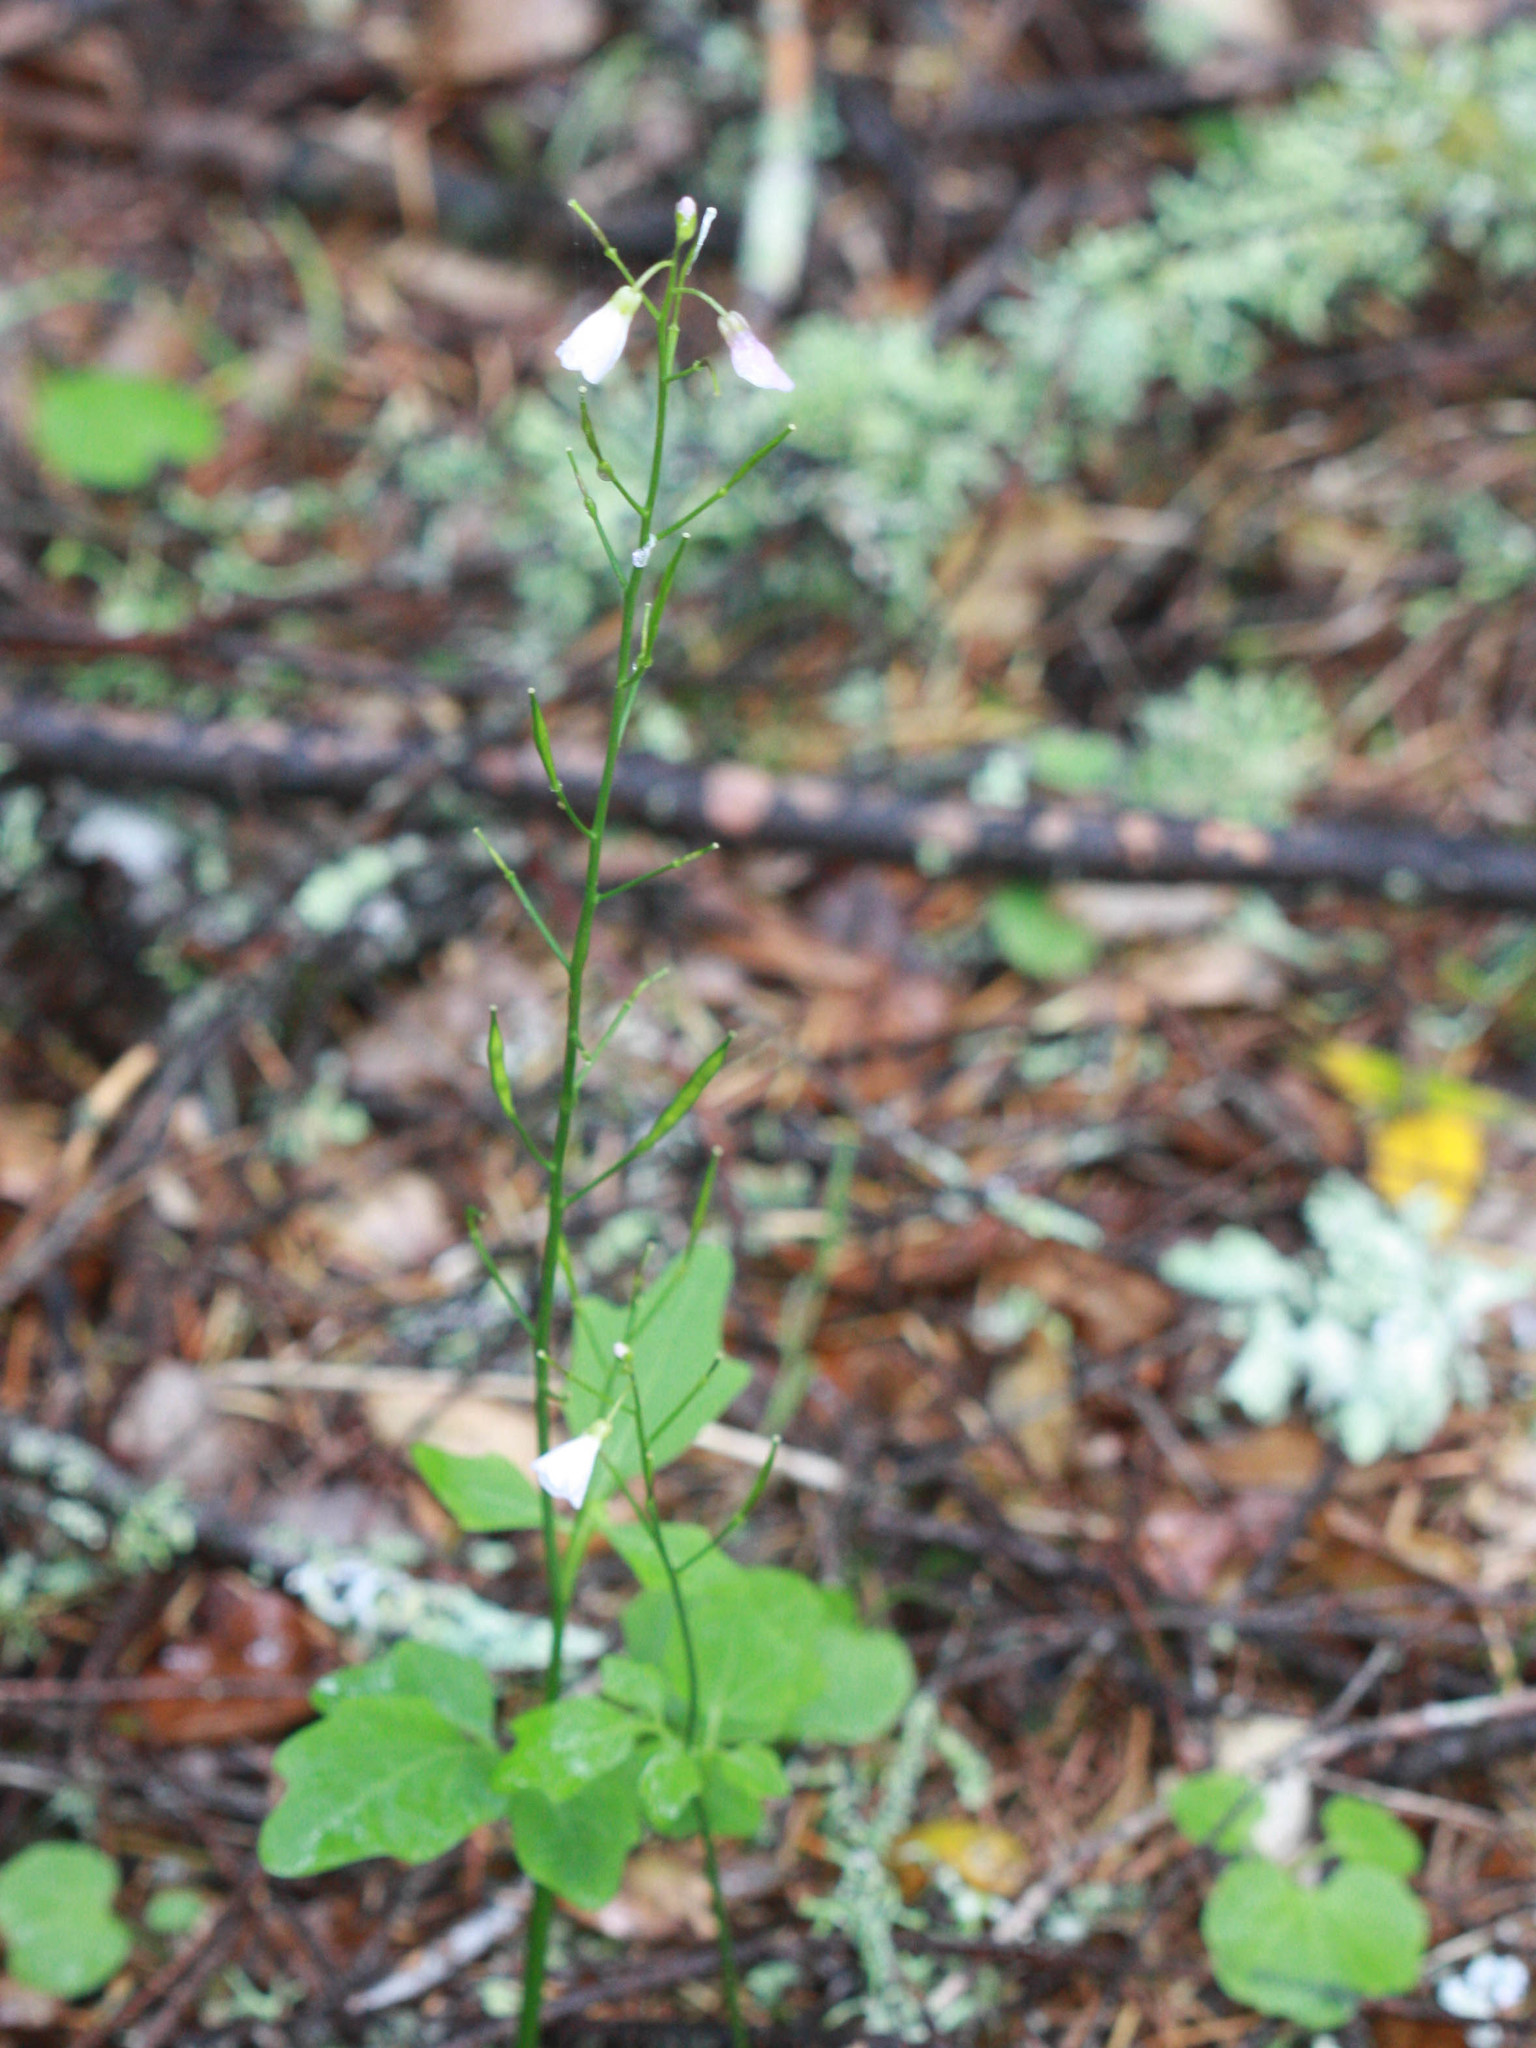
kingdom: Plantae
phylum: Tracheophyta
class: Magnoliopsida
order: Brassicales
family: Brassicaceae
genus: Cardamine
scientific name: Cardamine californica
